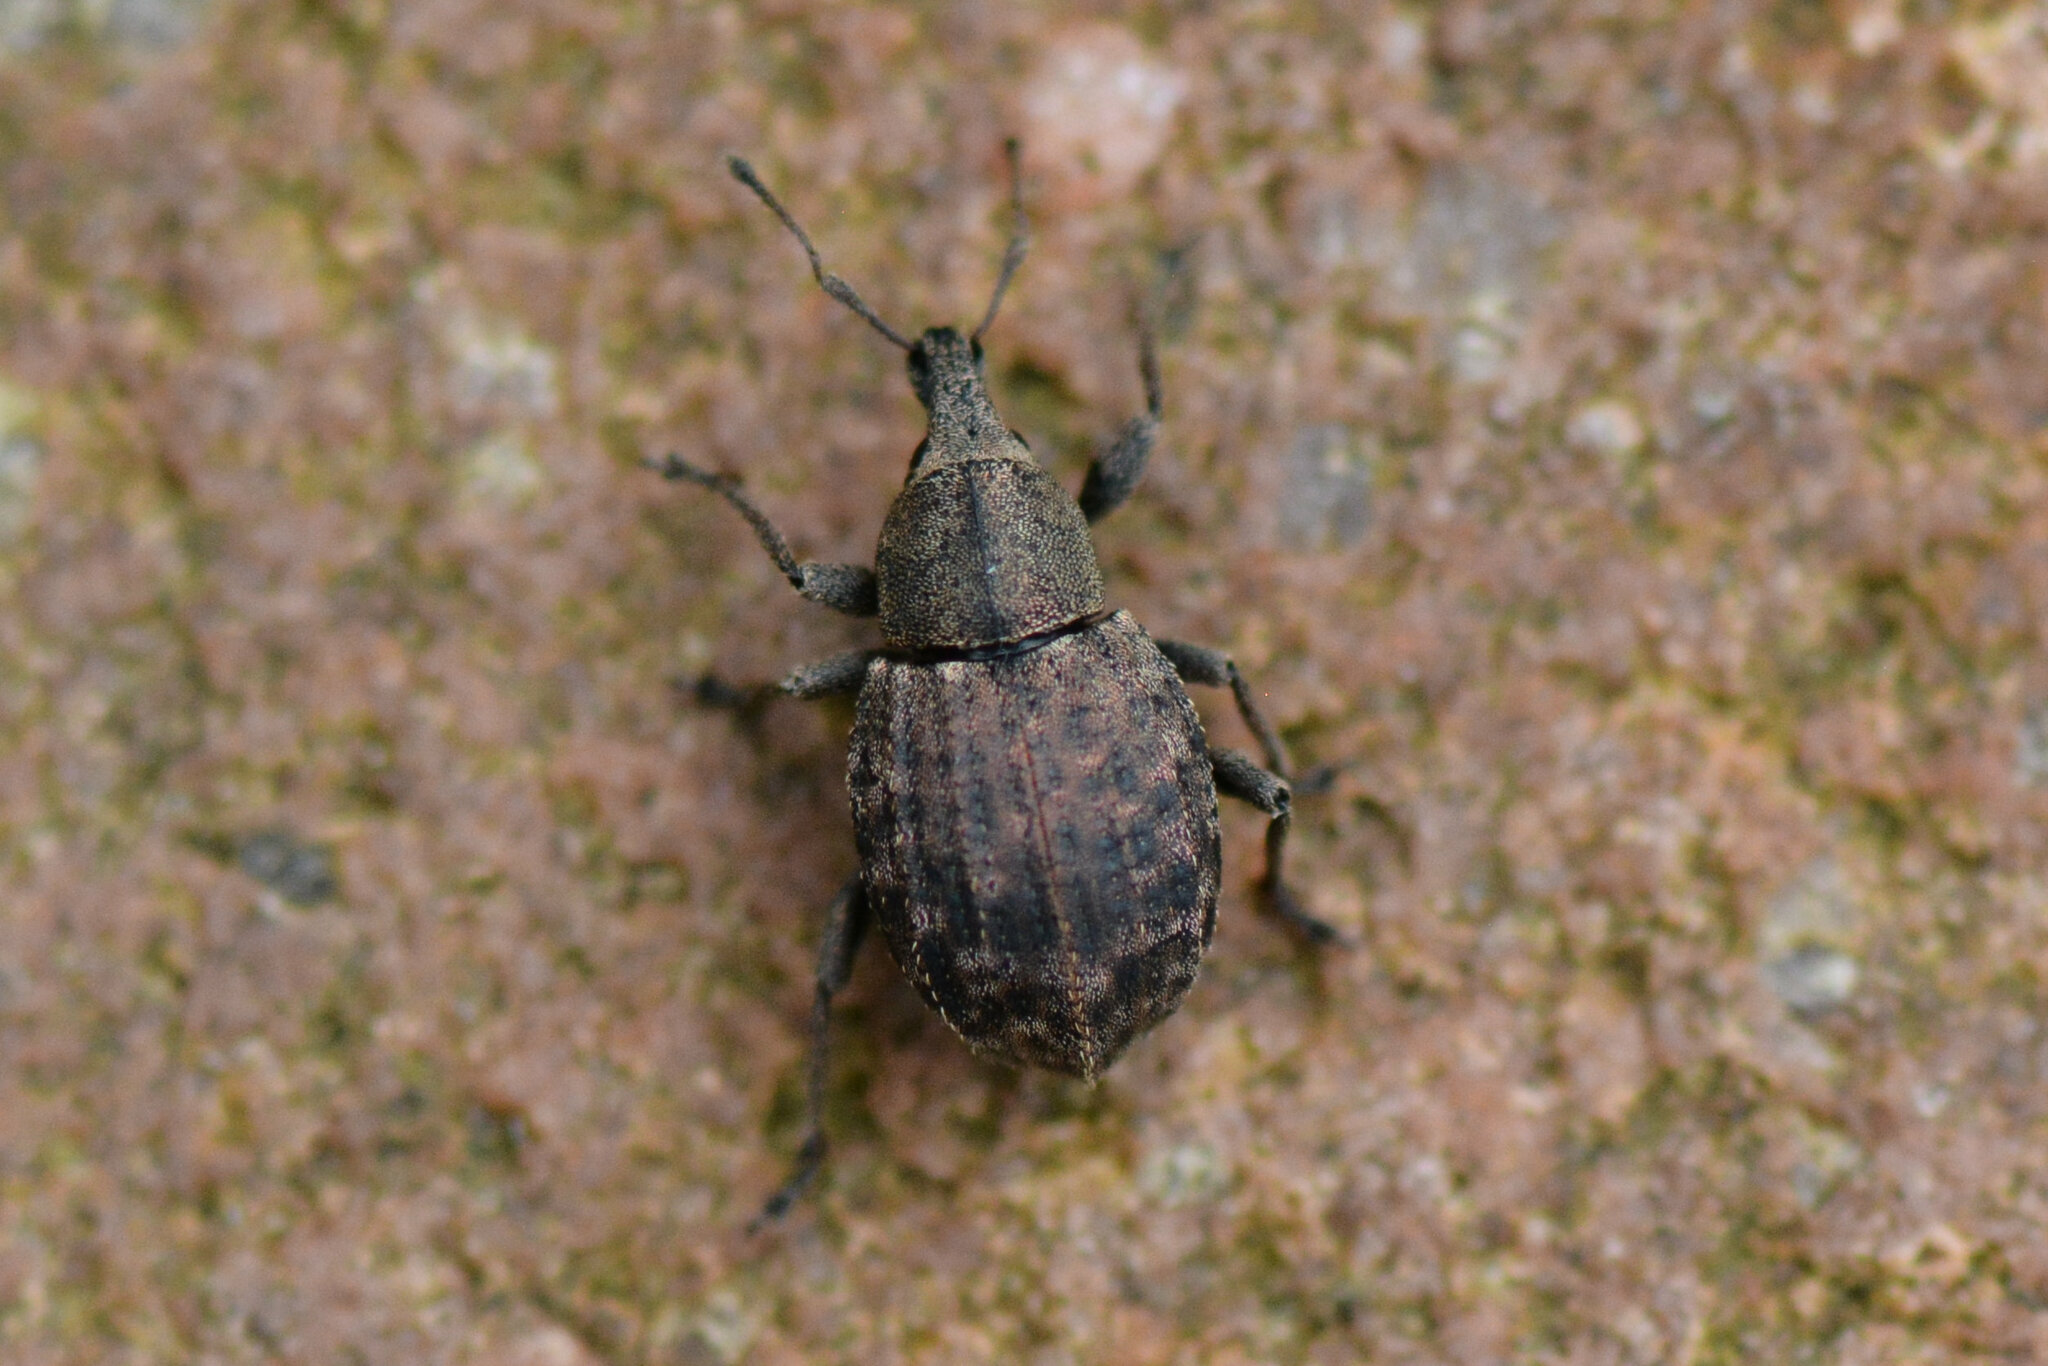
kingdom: Animalia
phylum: Arthropoda
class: Insecta
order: Coleoptera
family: Curculionidae
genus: Tropiphorus
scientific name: Tropiphorus elevatus
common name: Weevil
